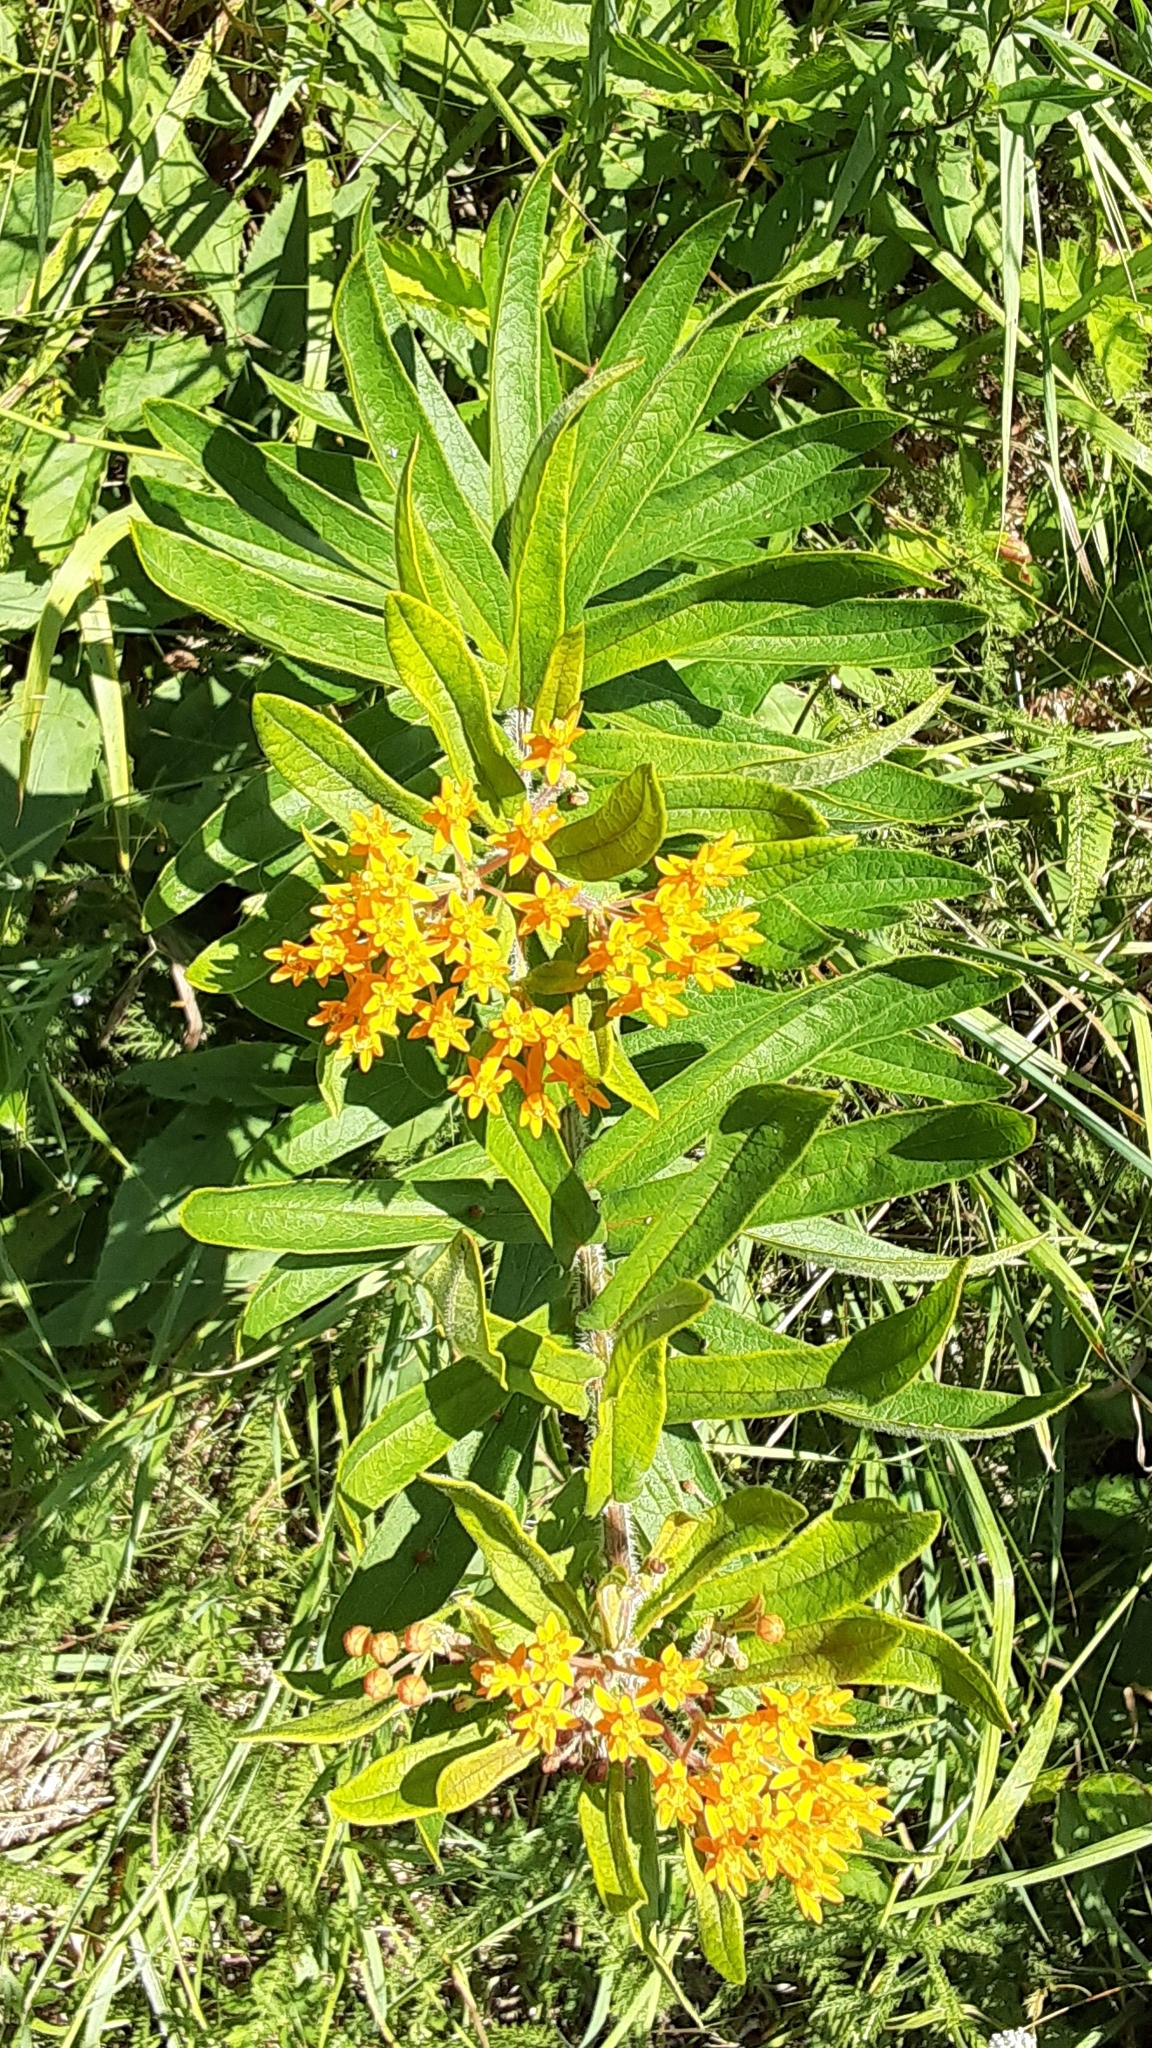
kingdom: Plantae
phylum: Tracheophyta
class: Magnoliopsida
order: Gentianales
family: Apocynaceae
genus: Asclepias
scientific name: Asclepias tuberosa
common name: Butterfly milkweed
